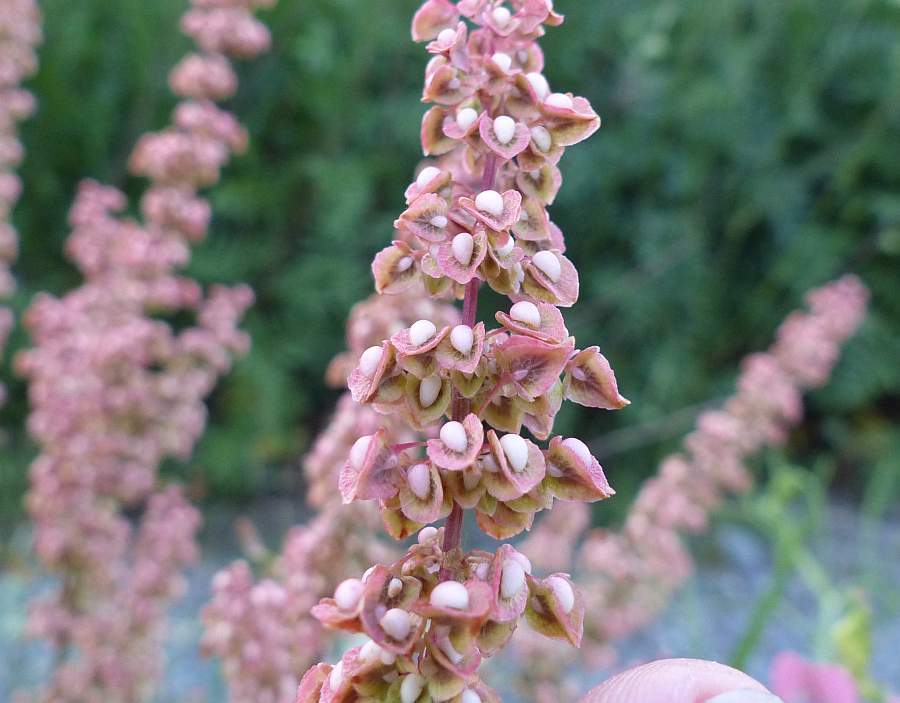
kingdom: Plantae
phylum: Tracheophyta
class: Magnoliopsida
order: Caryophyllales
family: Polygonaceae
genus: Rumex
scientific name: Rumex crispus
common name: Curled dock
